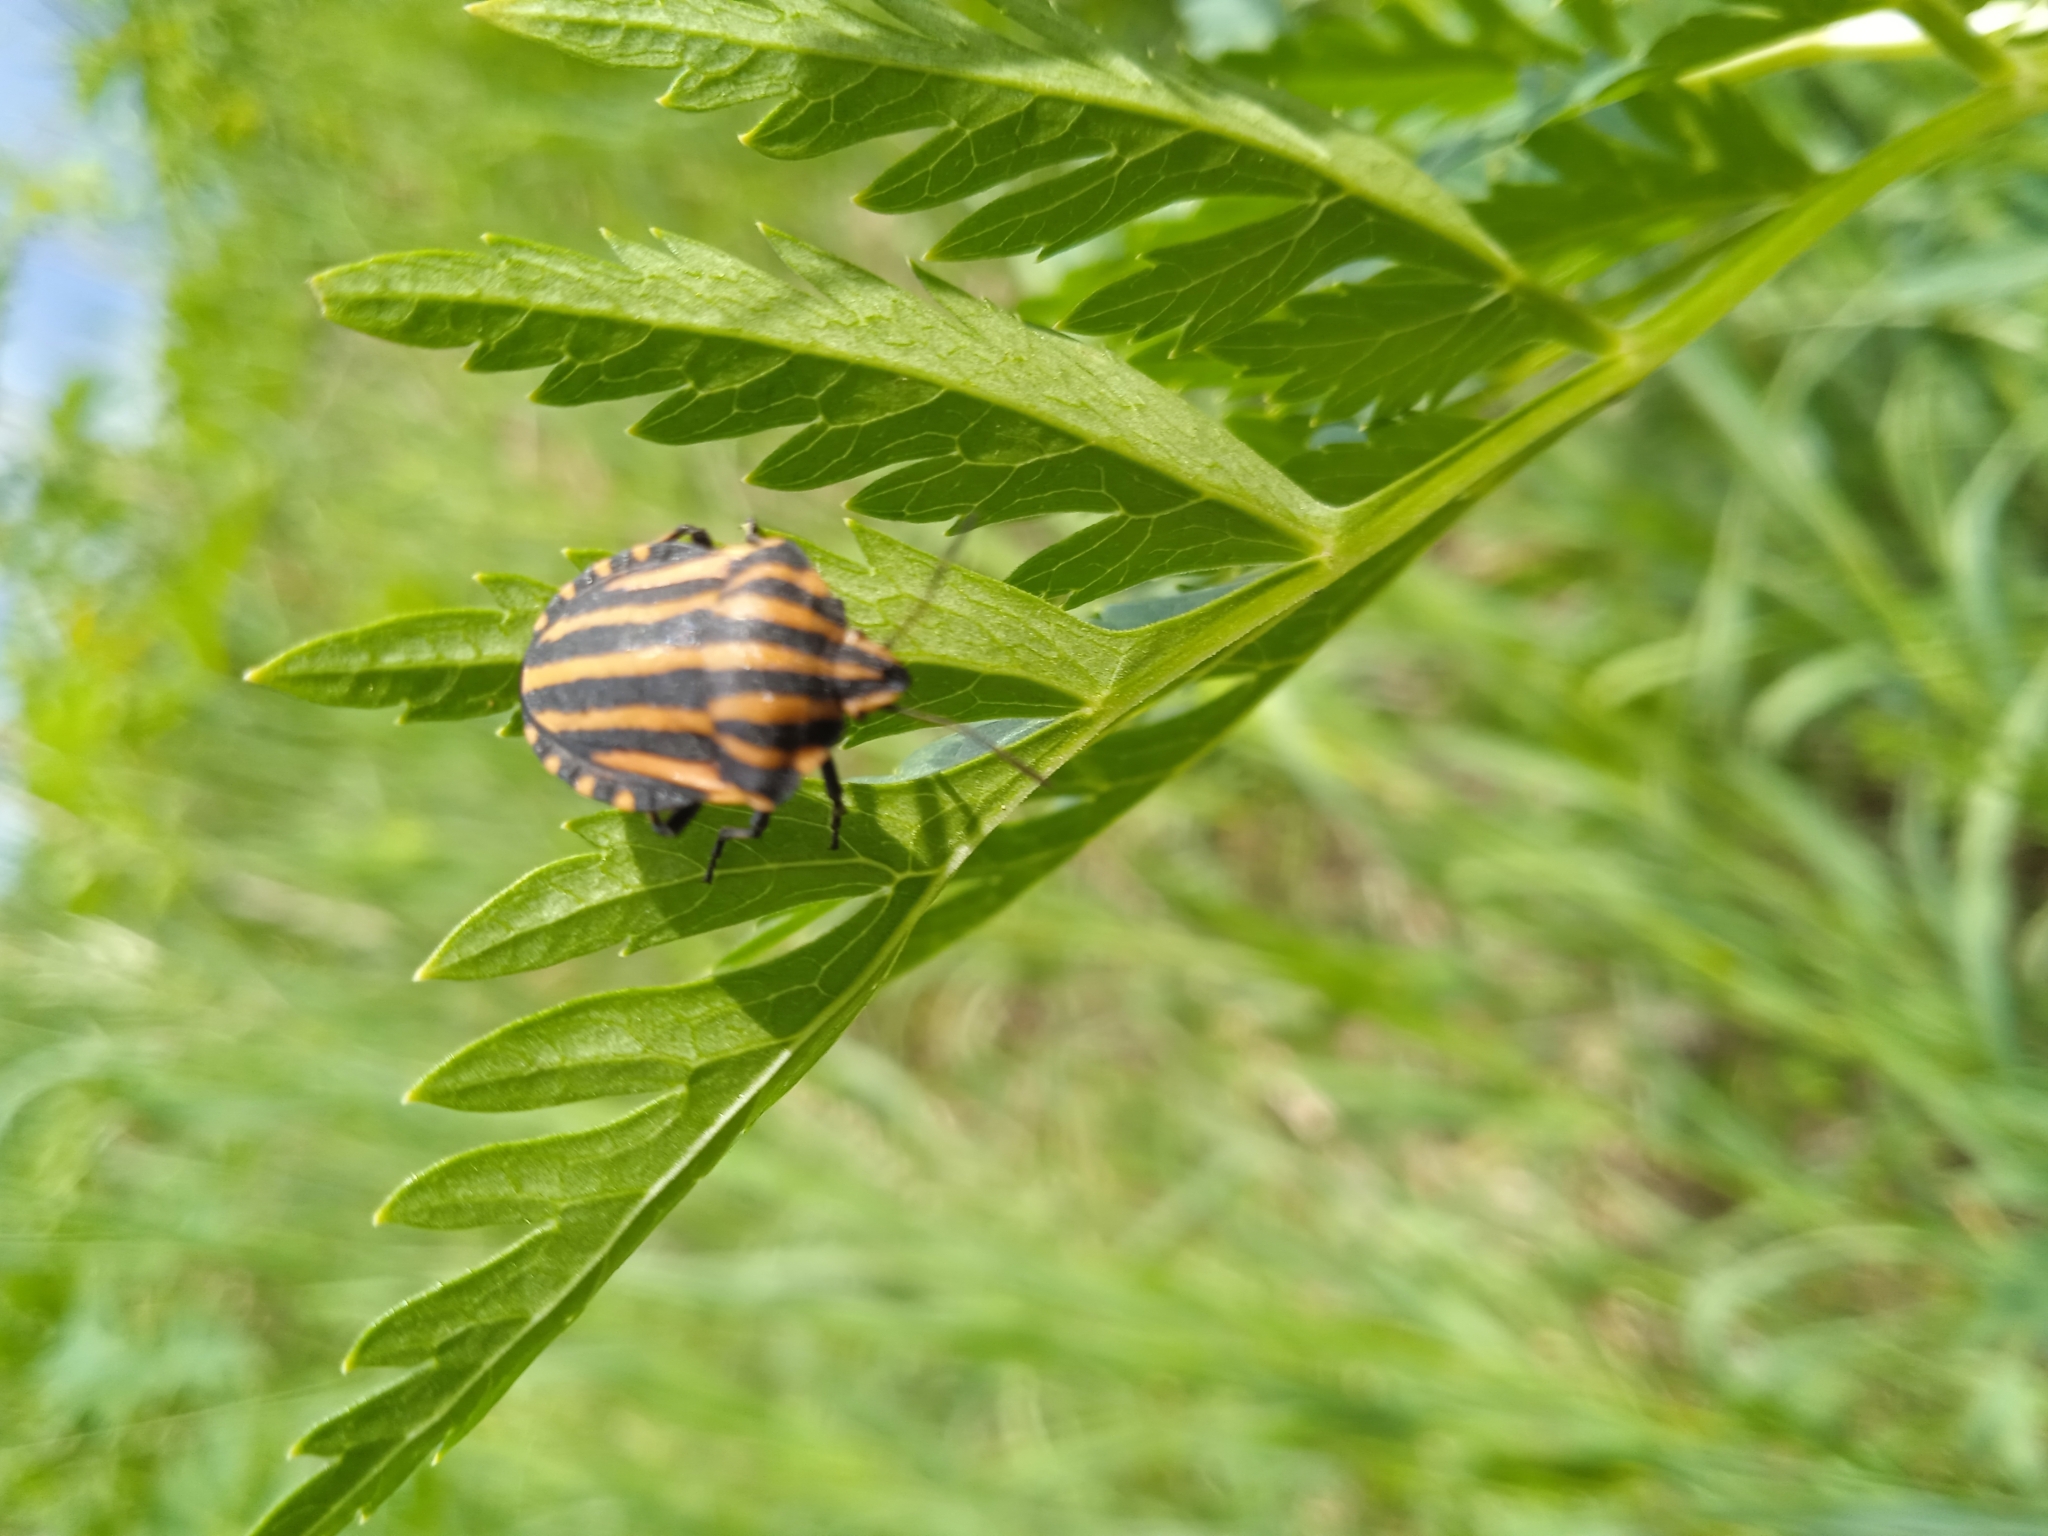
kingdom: Animalia
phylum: Arthropoda
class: Insecta
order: Hemiptera
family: Pentatomidae
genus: Graphosoma
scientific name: Graphosoma italicum
